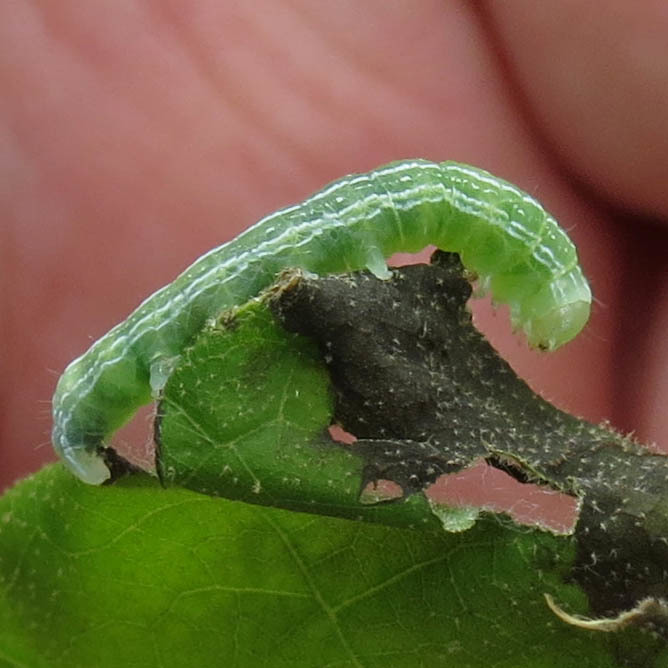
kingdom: Animalia
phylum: Arthropoda
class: Insecta
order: Lepidoptera
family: Noctuidae
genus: Achatia
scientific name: Achatia distincta
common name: Distinct quaker
